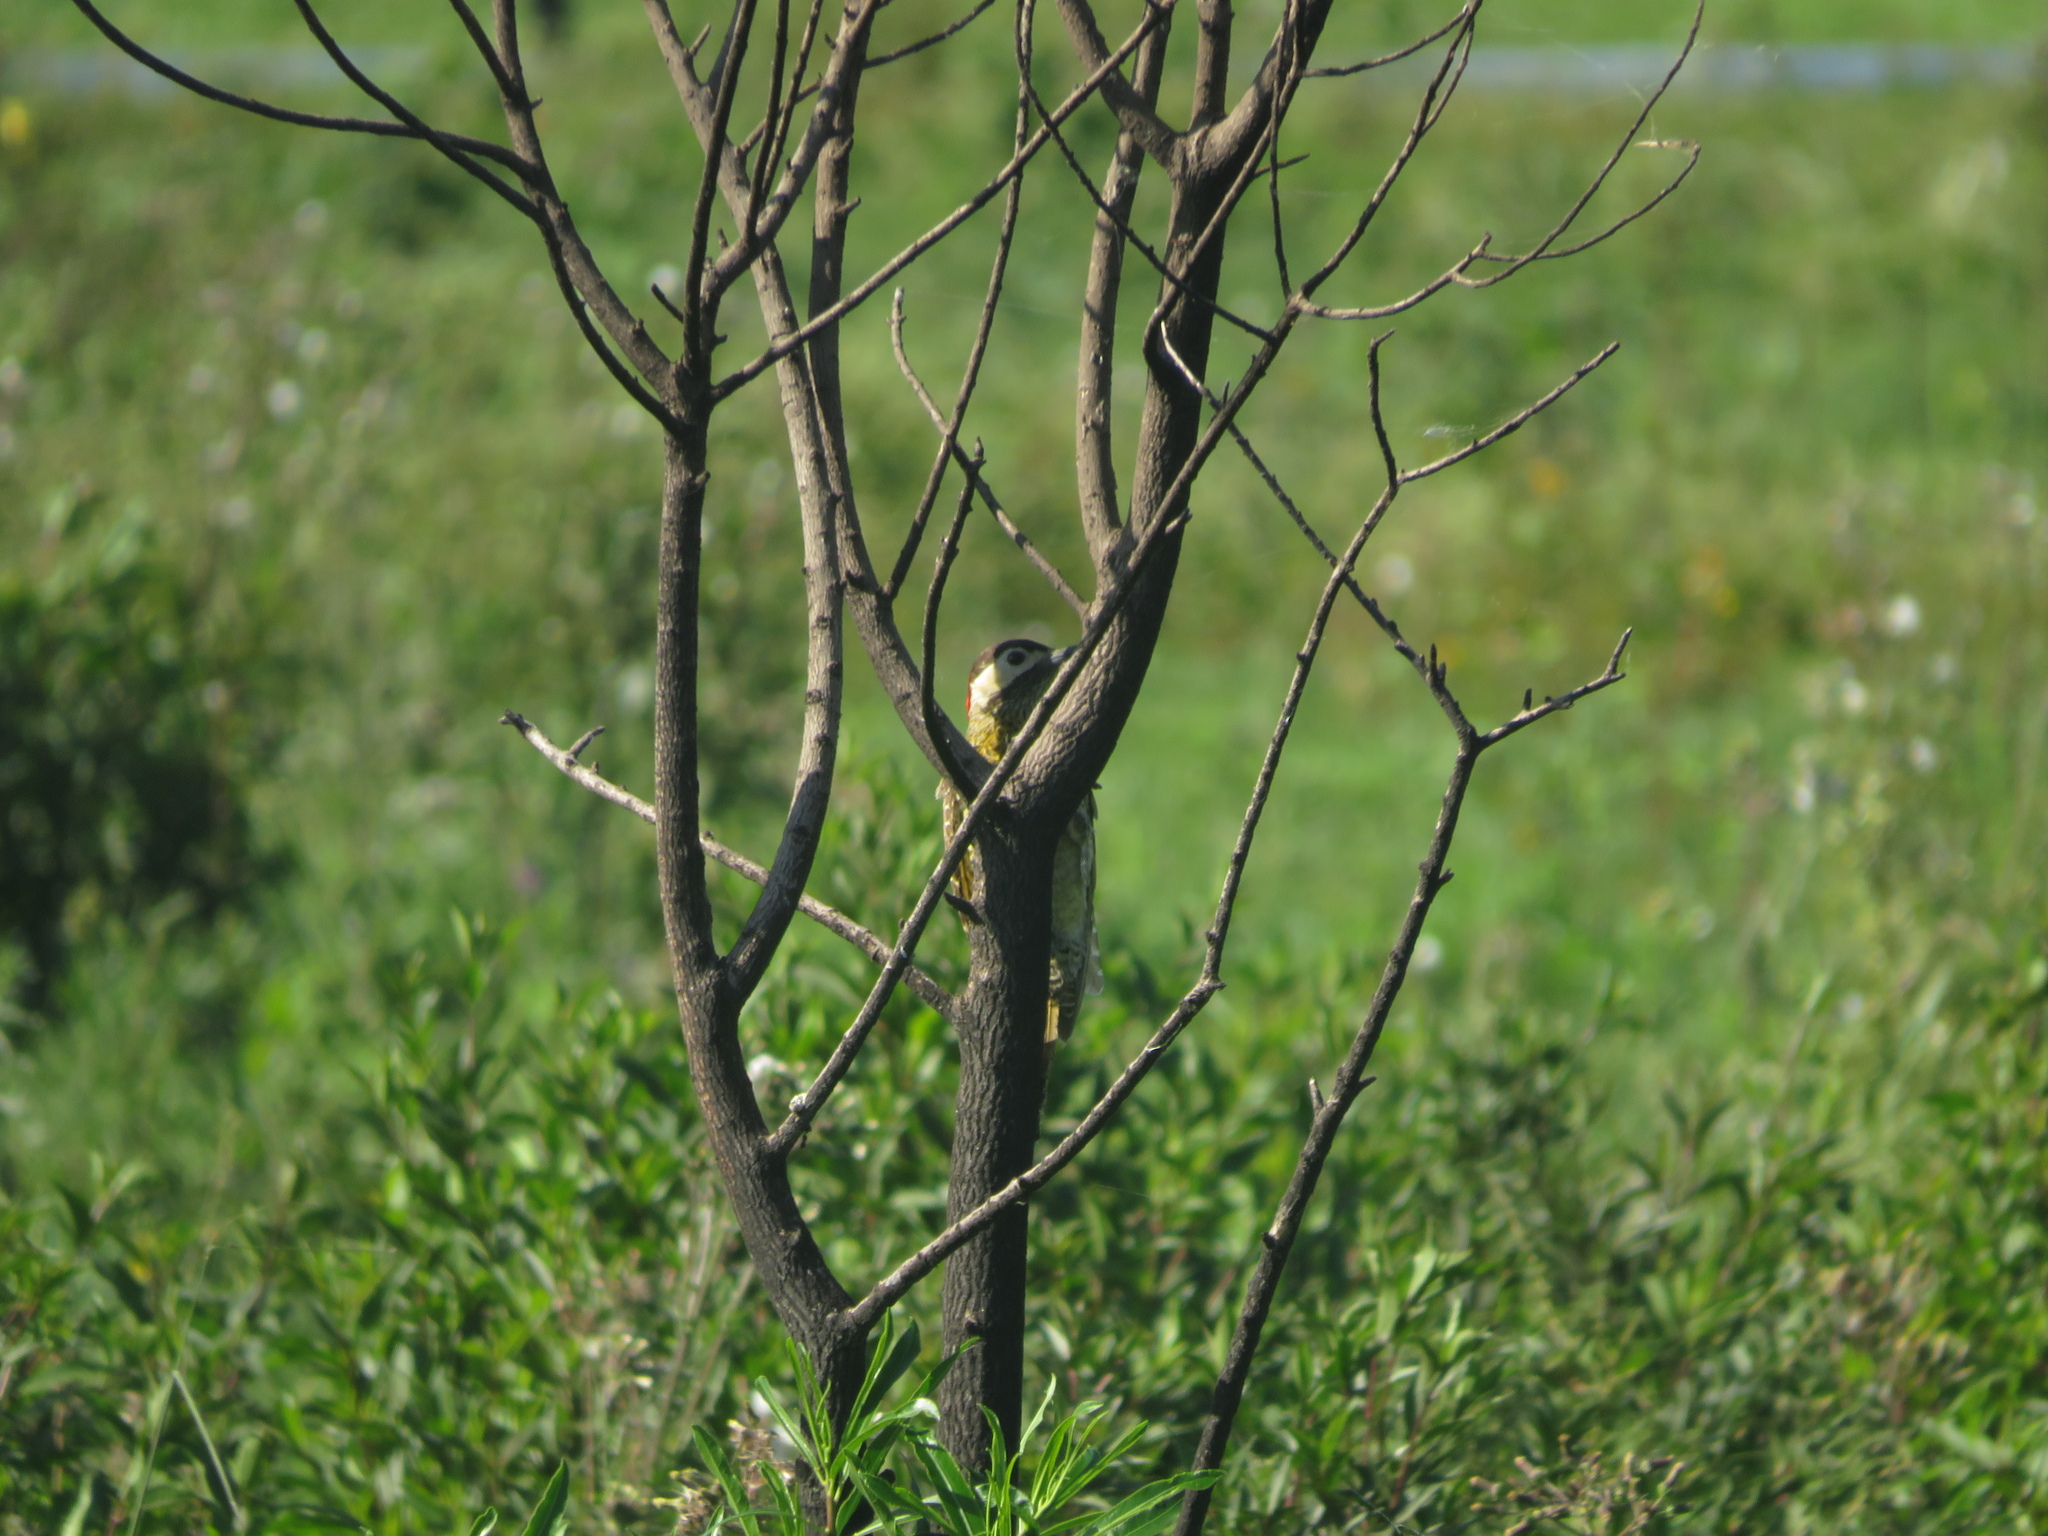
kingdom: Animalia
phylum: Chordata
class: Aves
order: Piciformes
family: Picidae
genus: Colaptes
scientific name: Colaptes melanochloros
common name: Green-barred woodpecker
